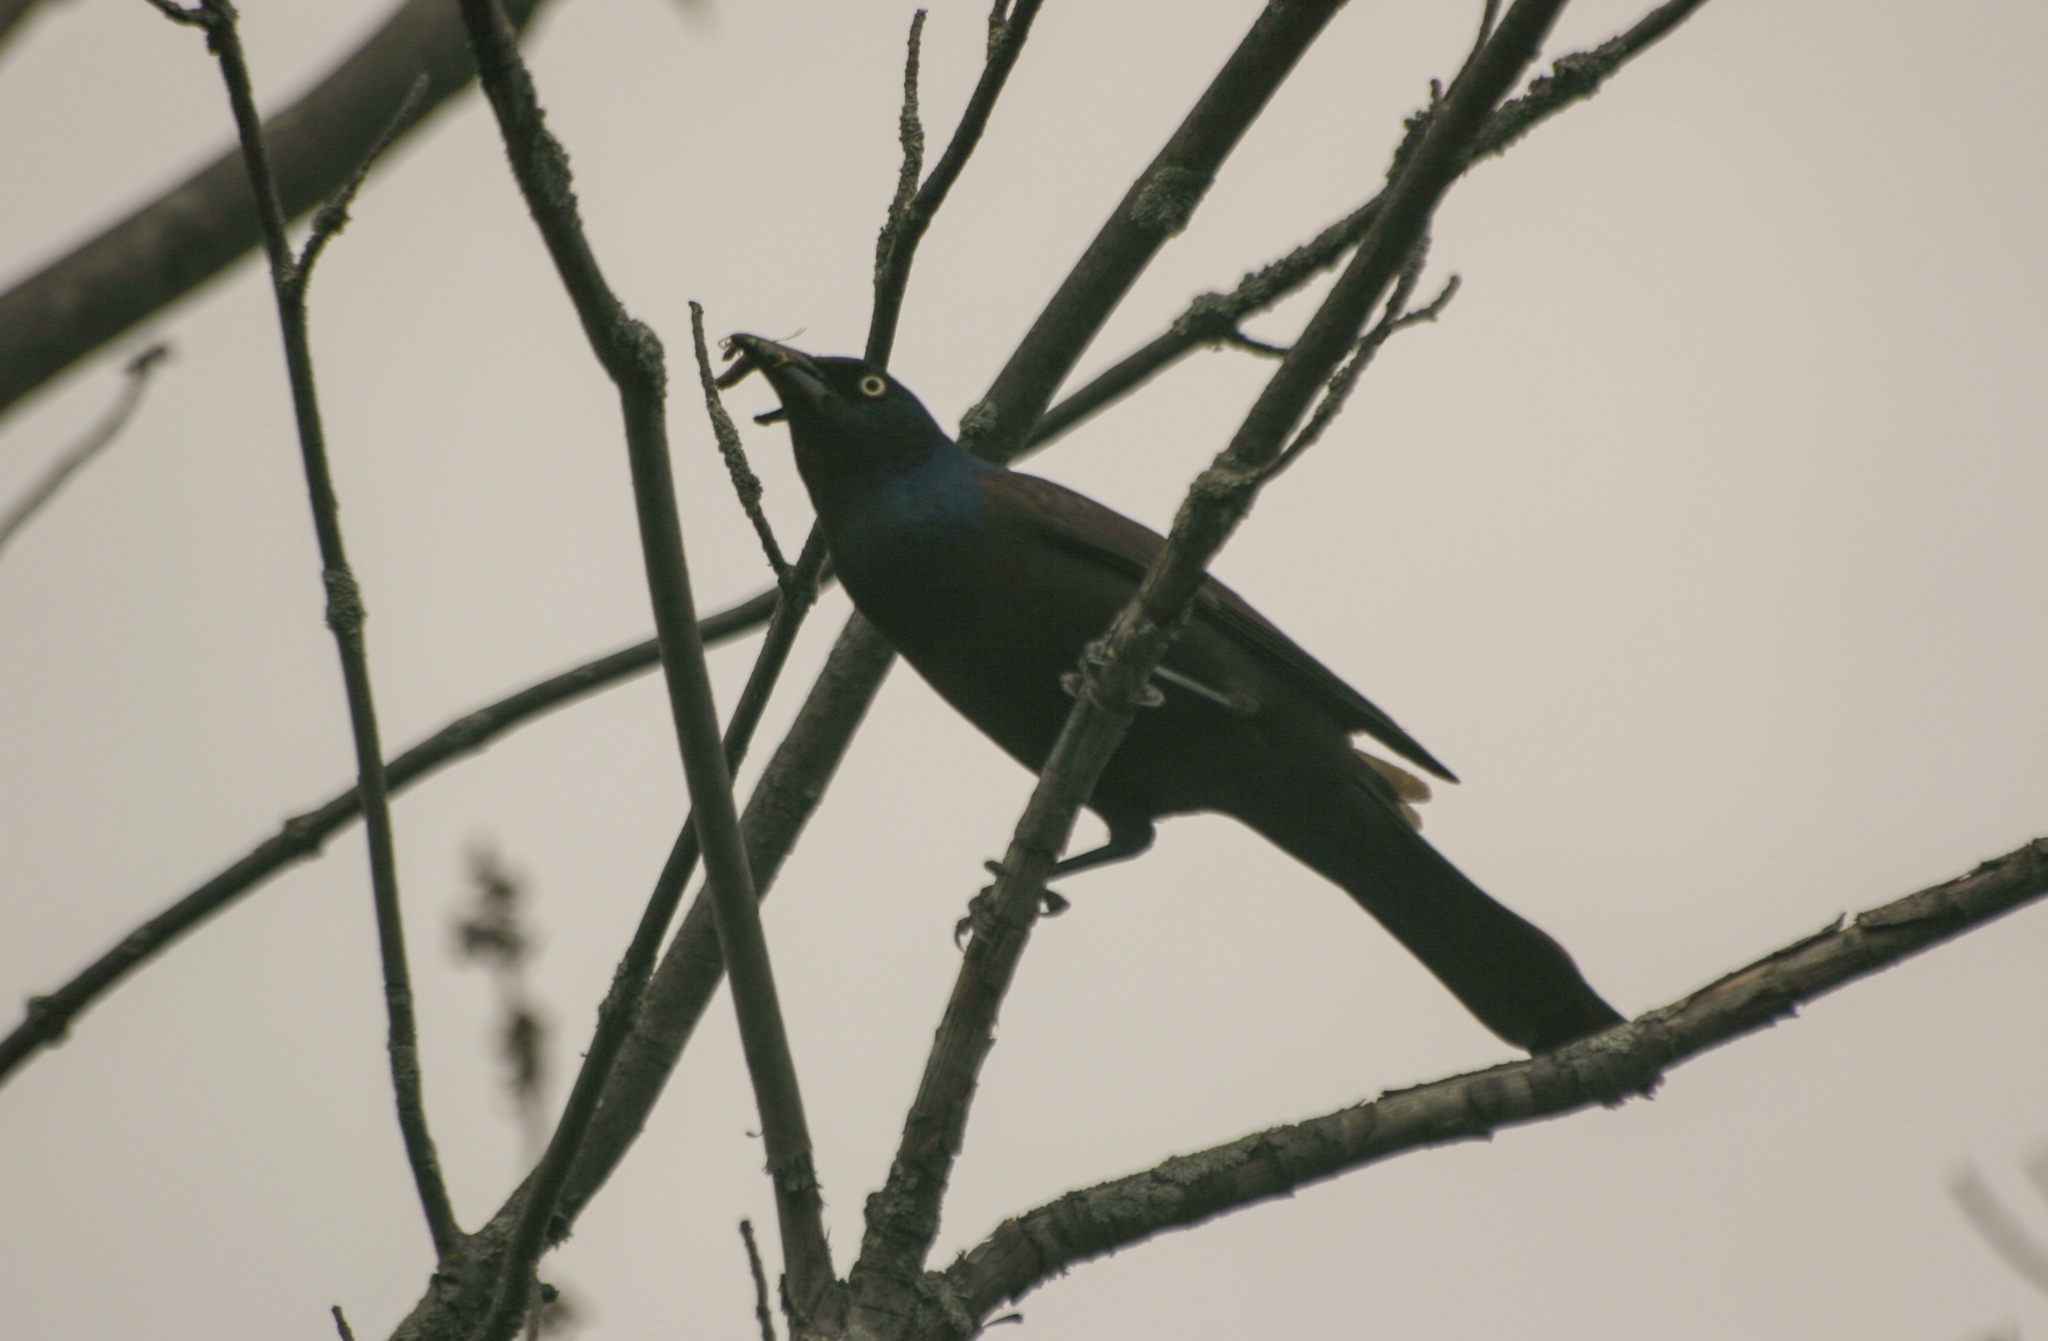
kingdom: Animalia
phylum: Chordata
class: Aves
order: Passeriformes
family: Icteridae
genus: Quiscalus
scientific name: Quiscalus quiscula
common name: Common grackle
